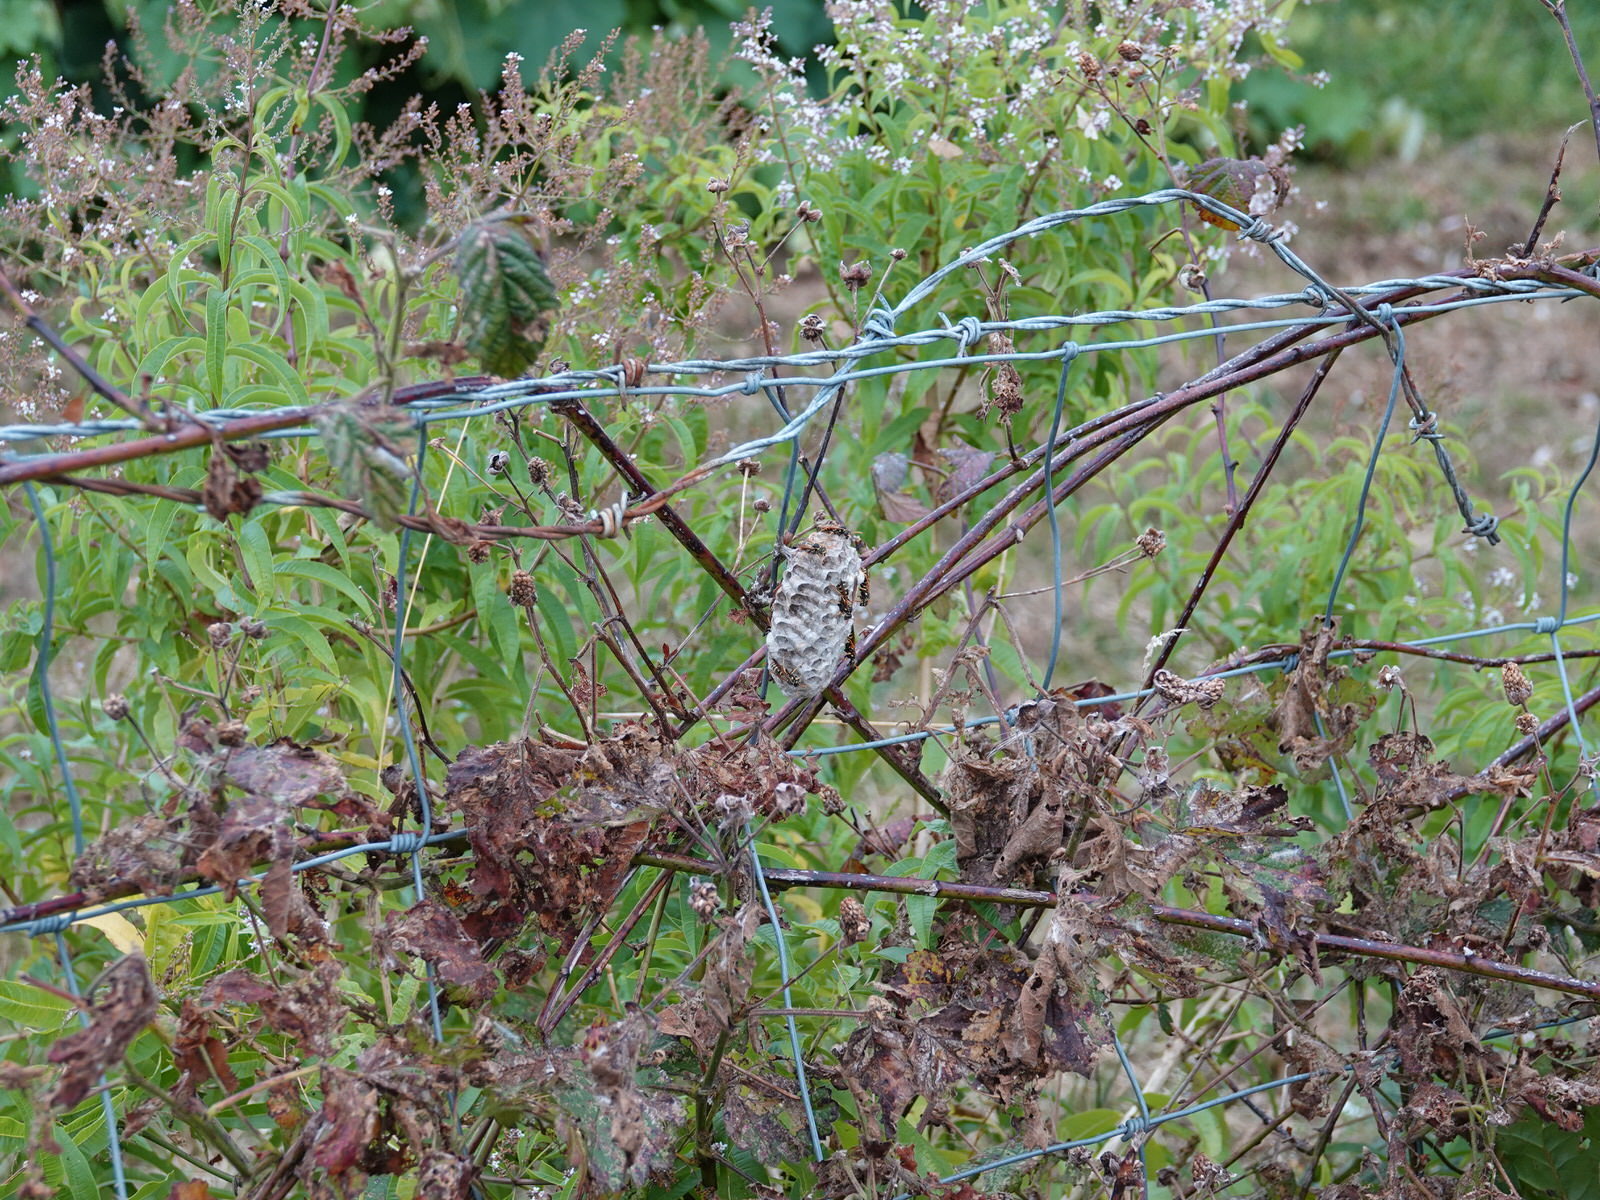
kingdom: Animalia
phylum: Arthropoda
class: Insecta
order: Hymenoptera
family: Eumenidae
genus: Polistes
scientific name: Polistes chinensis
